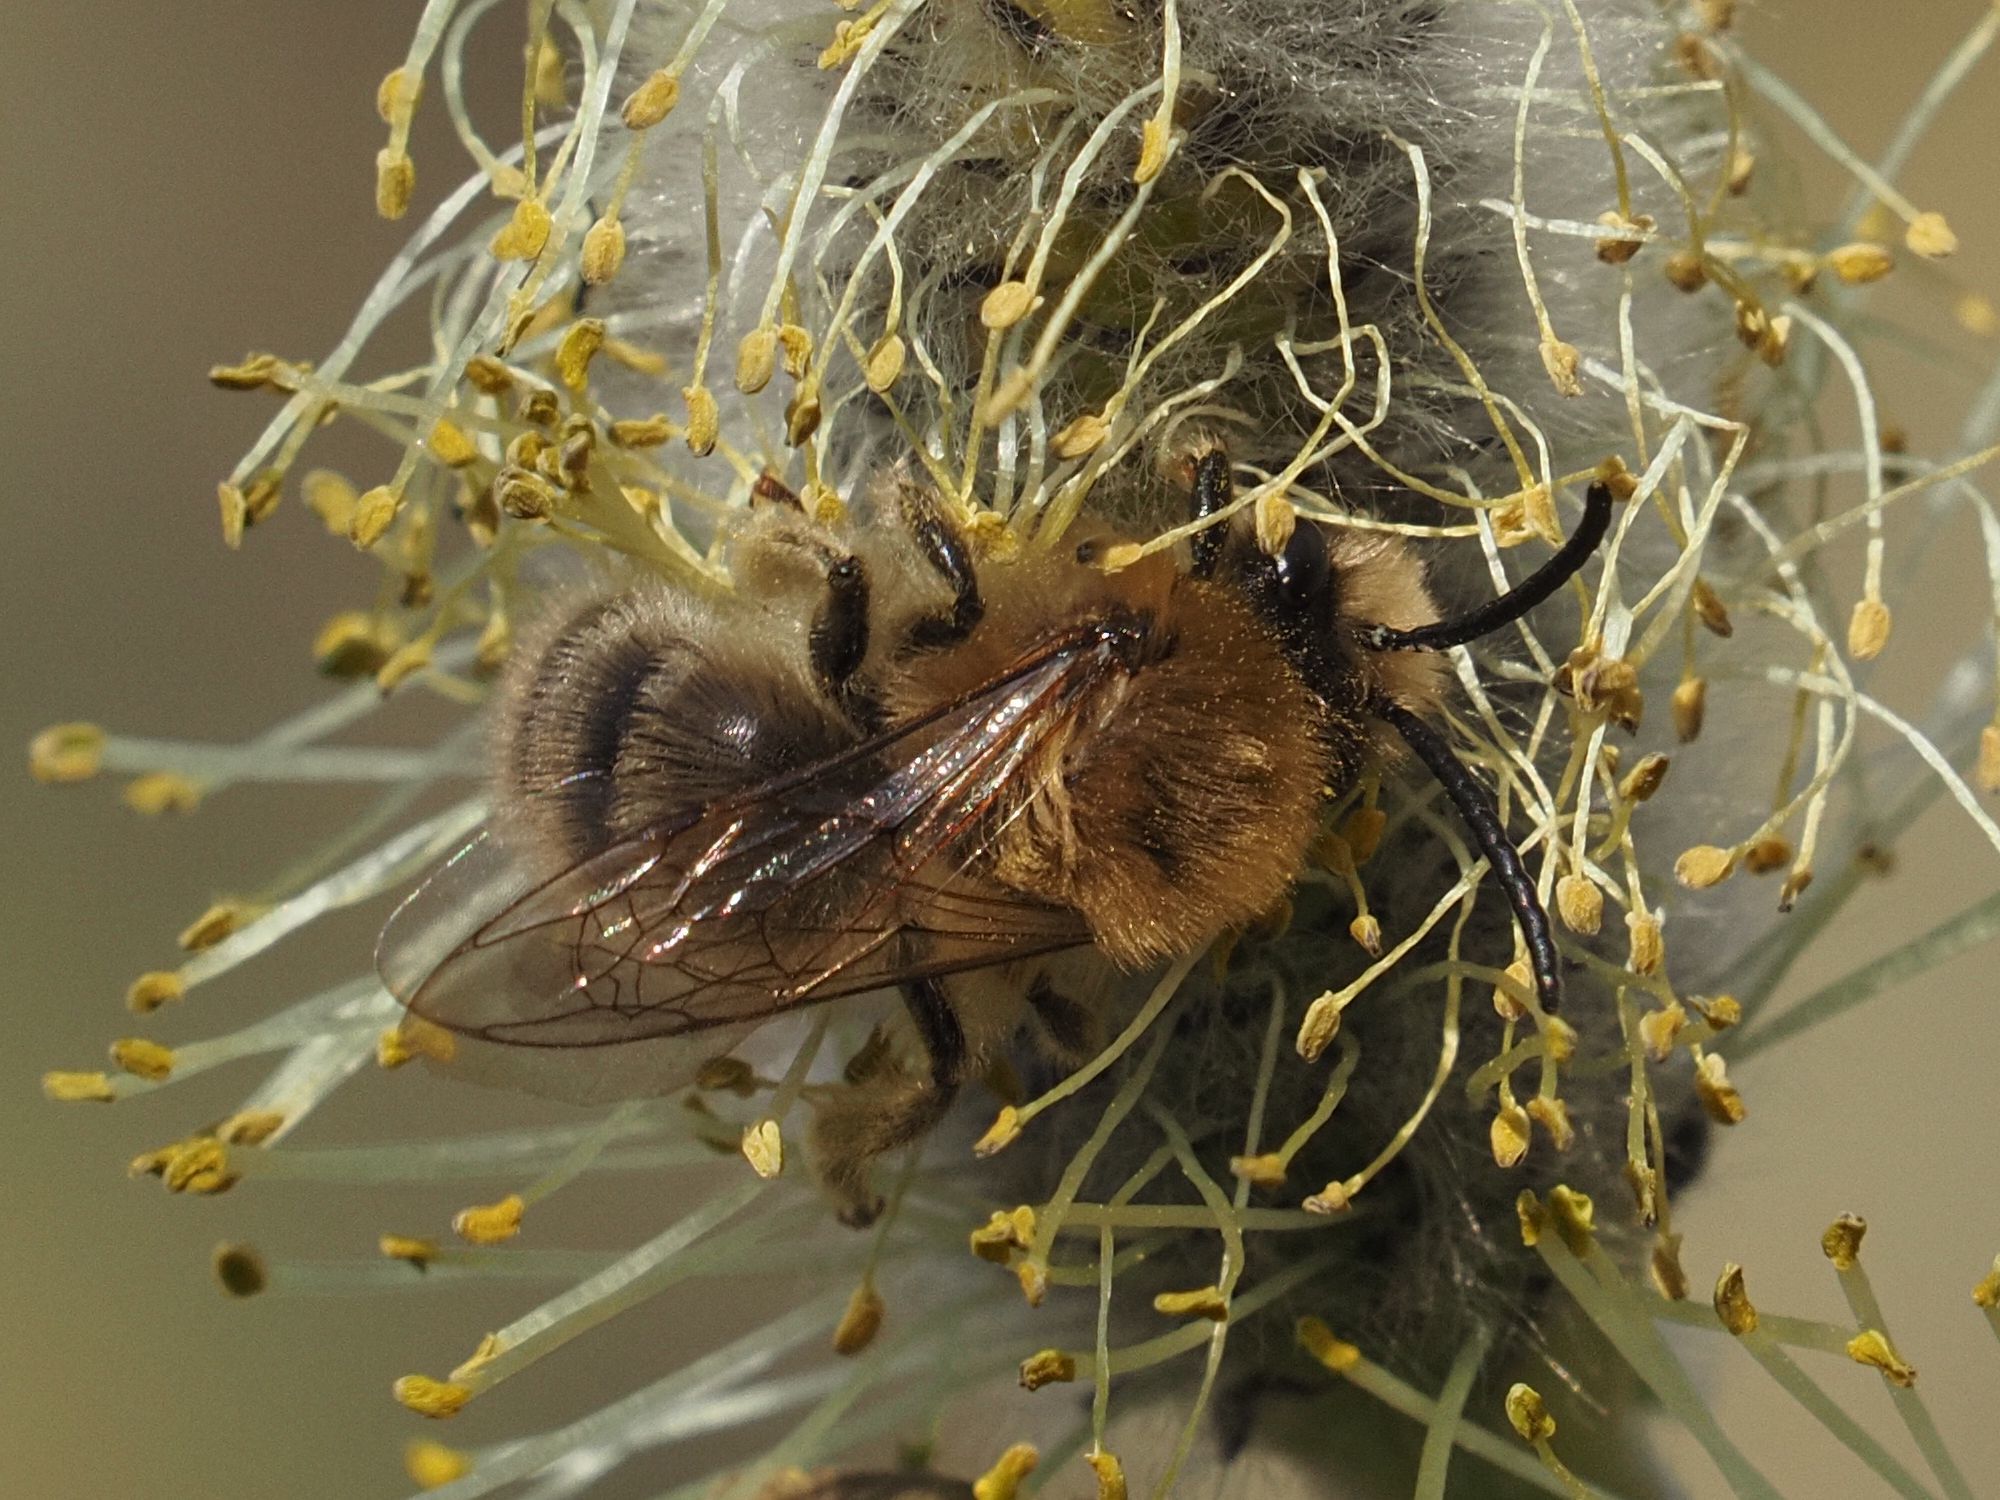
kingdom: Animalia
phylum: Arthropoda
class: Insecta
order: Hymenoptera
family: Colletidae
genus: Colletes
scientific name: Colletes cunicularius
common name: Early colletes
